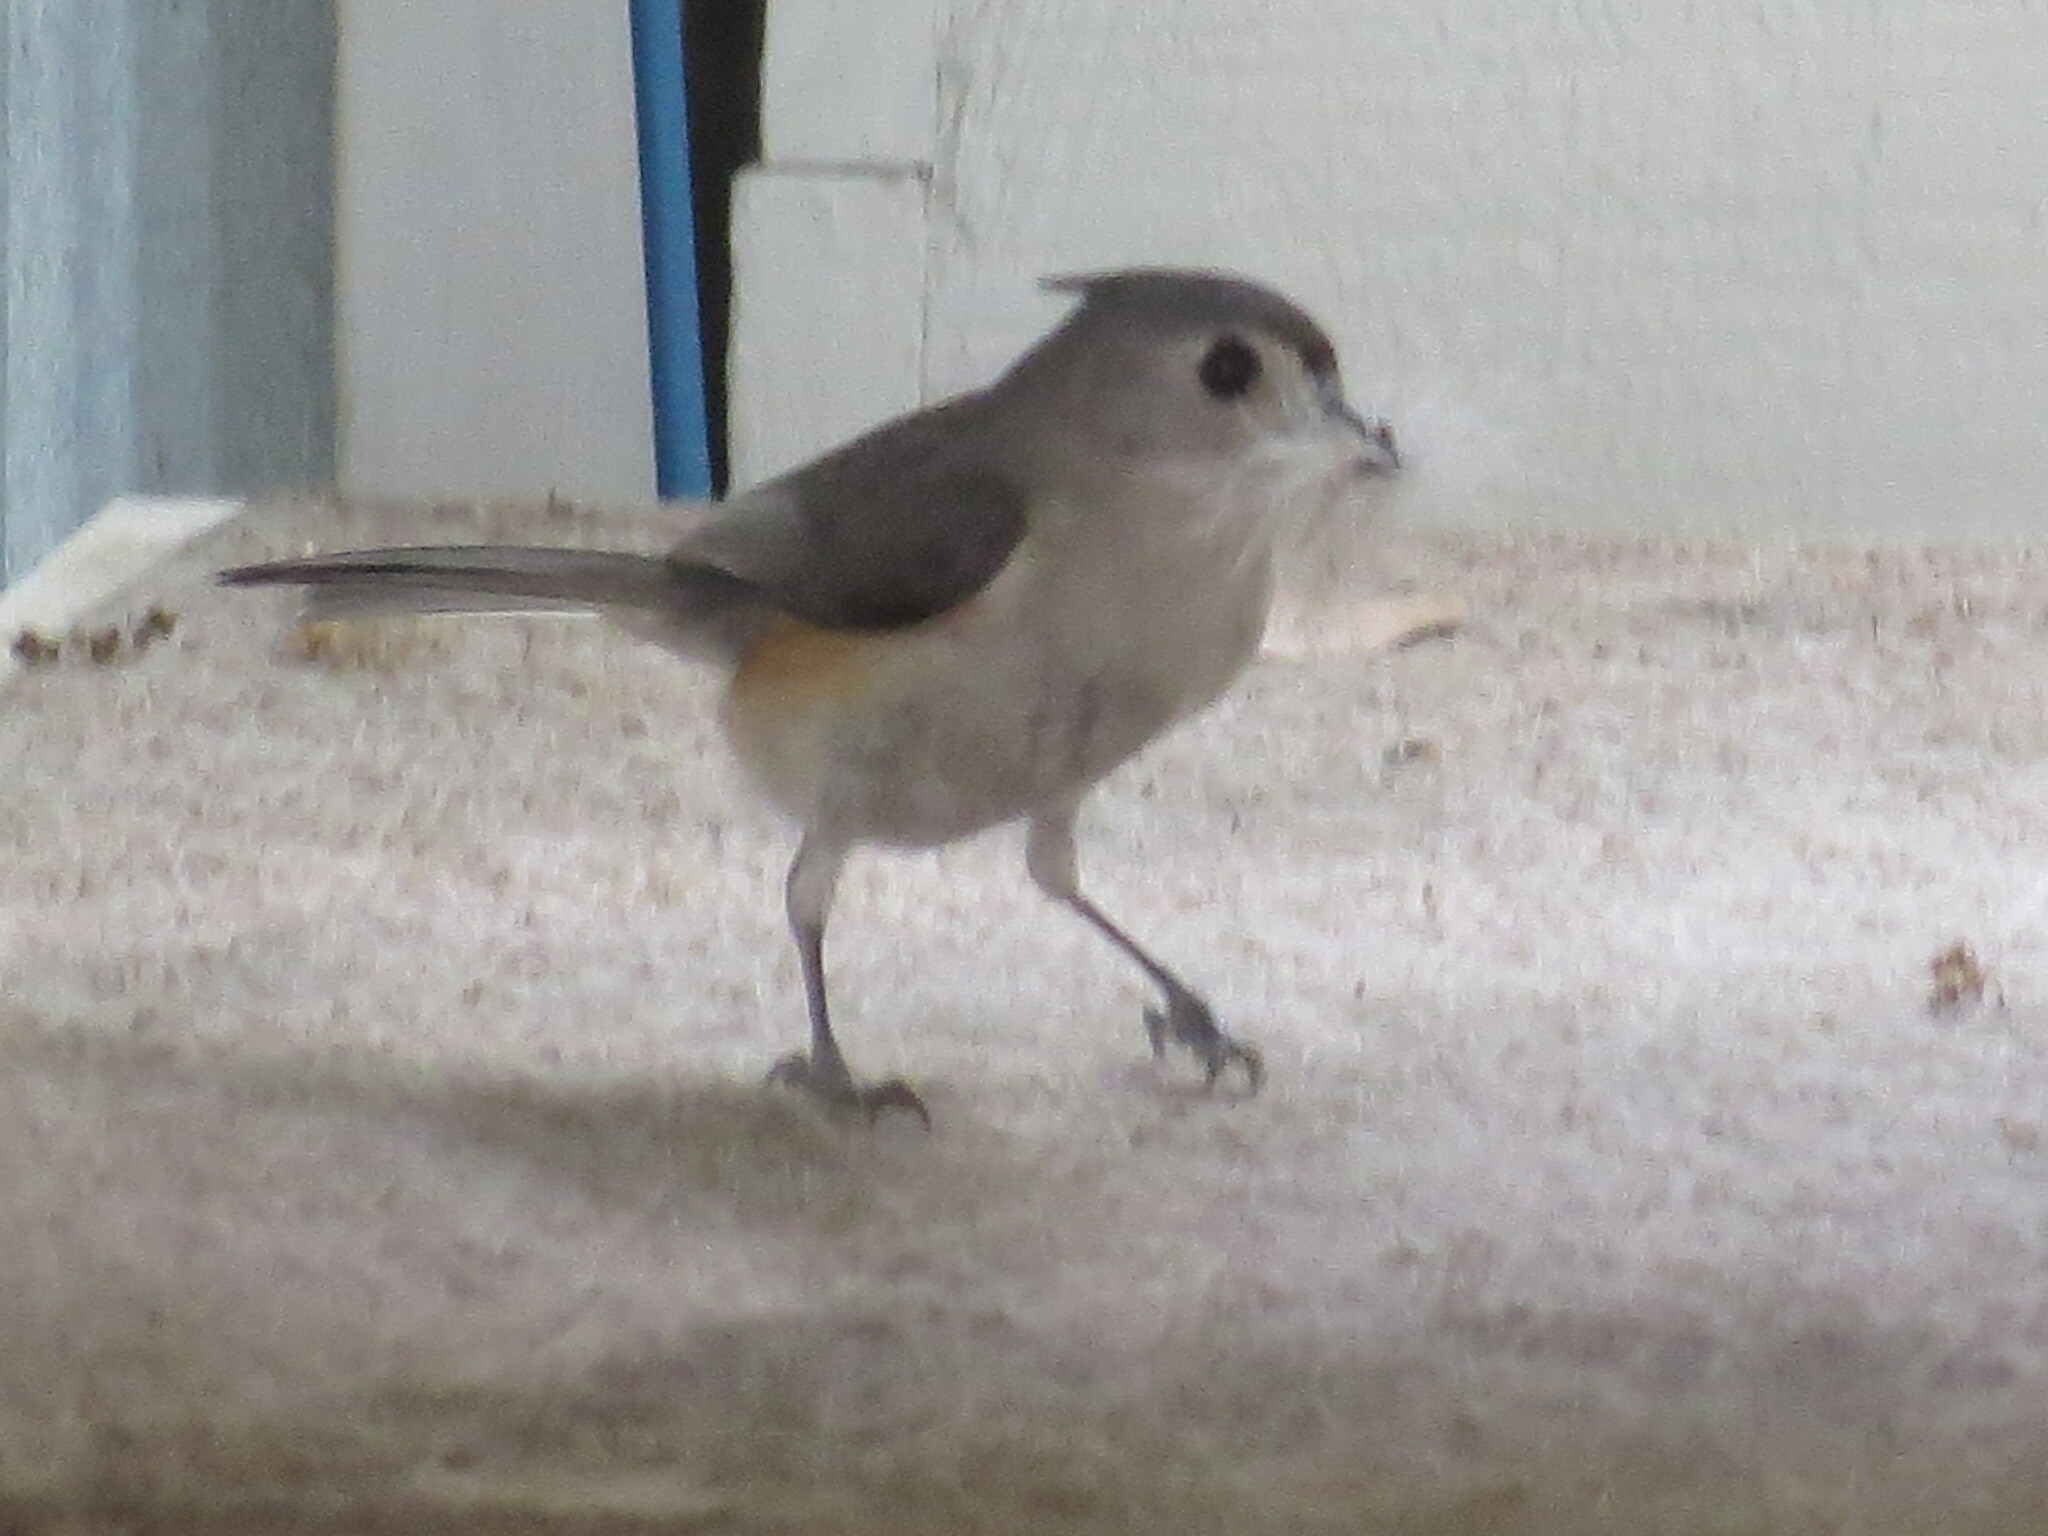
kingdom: Animalia
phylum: Chordata
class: Aves
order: Passeriformes
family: Paridae
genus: Baeolophus
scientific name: Baeolophus bicolor
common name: Tufted titmouse
